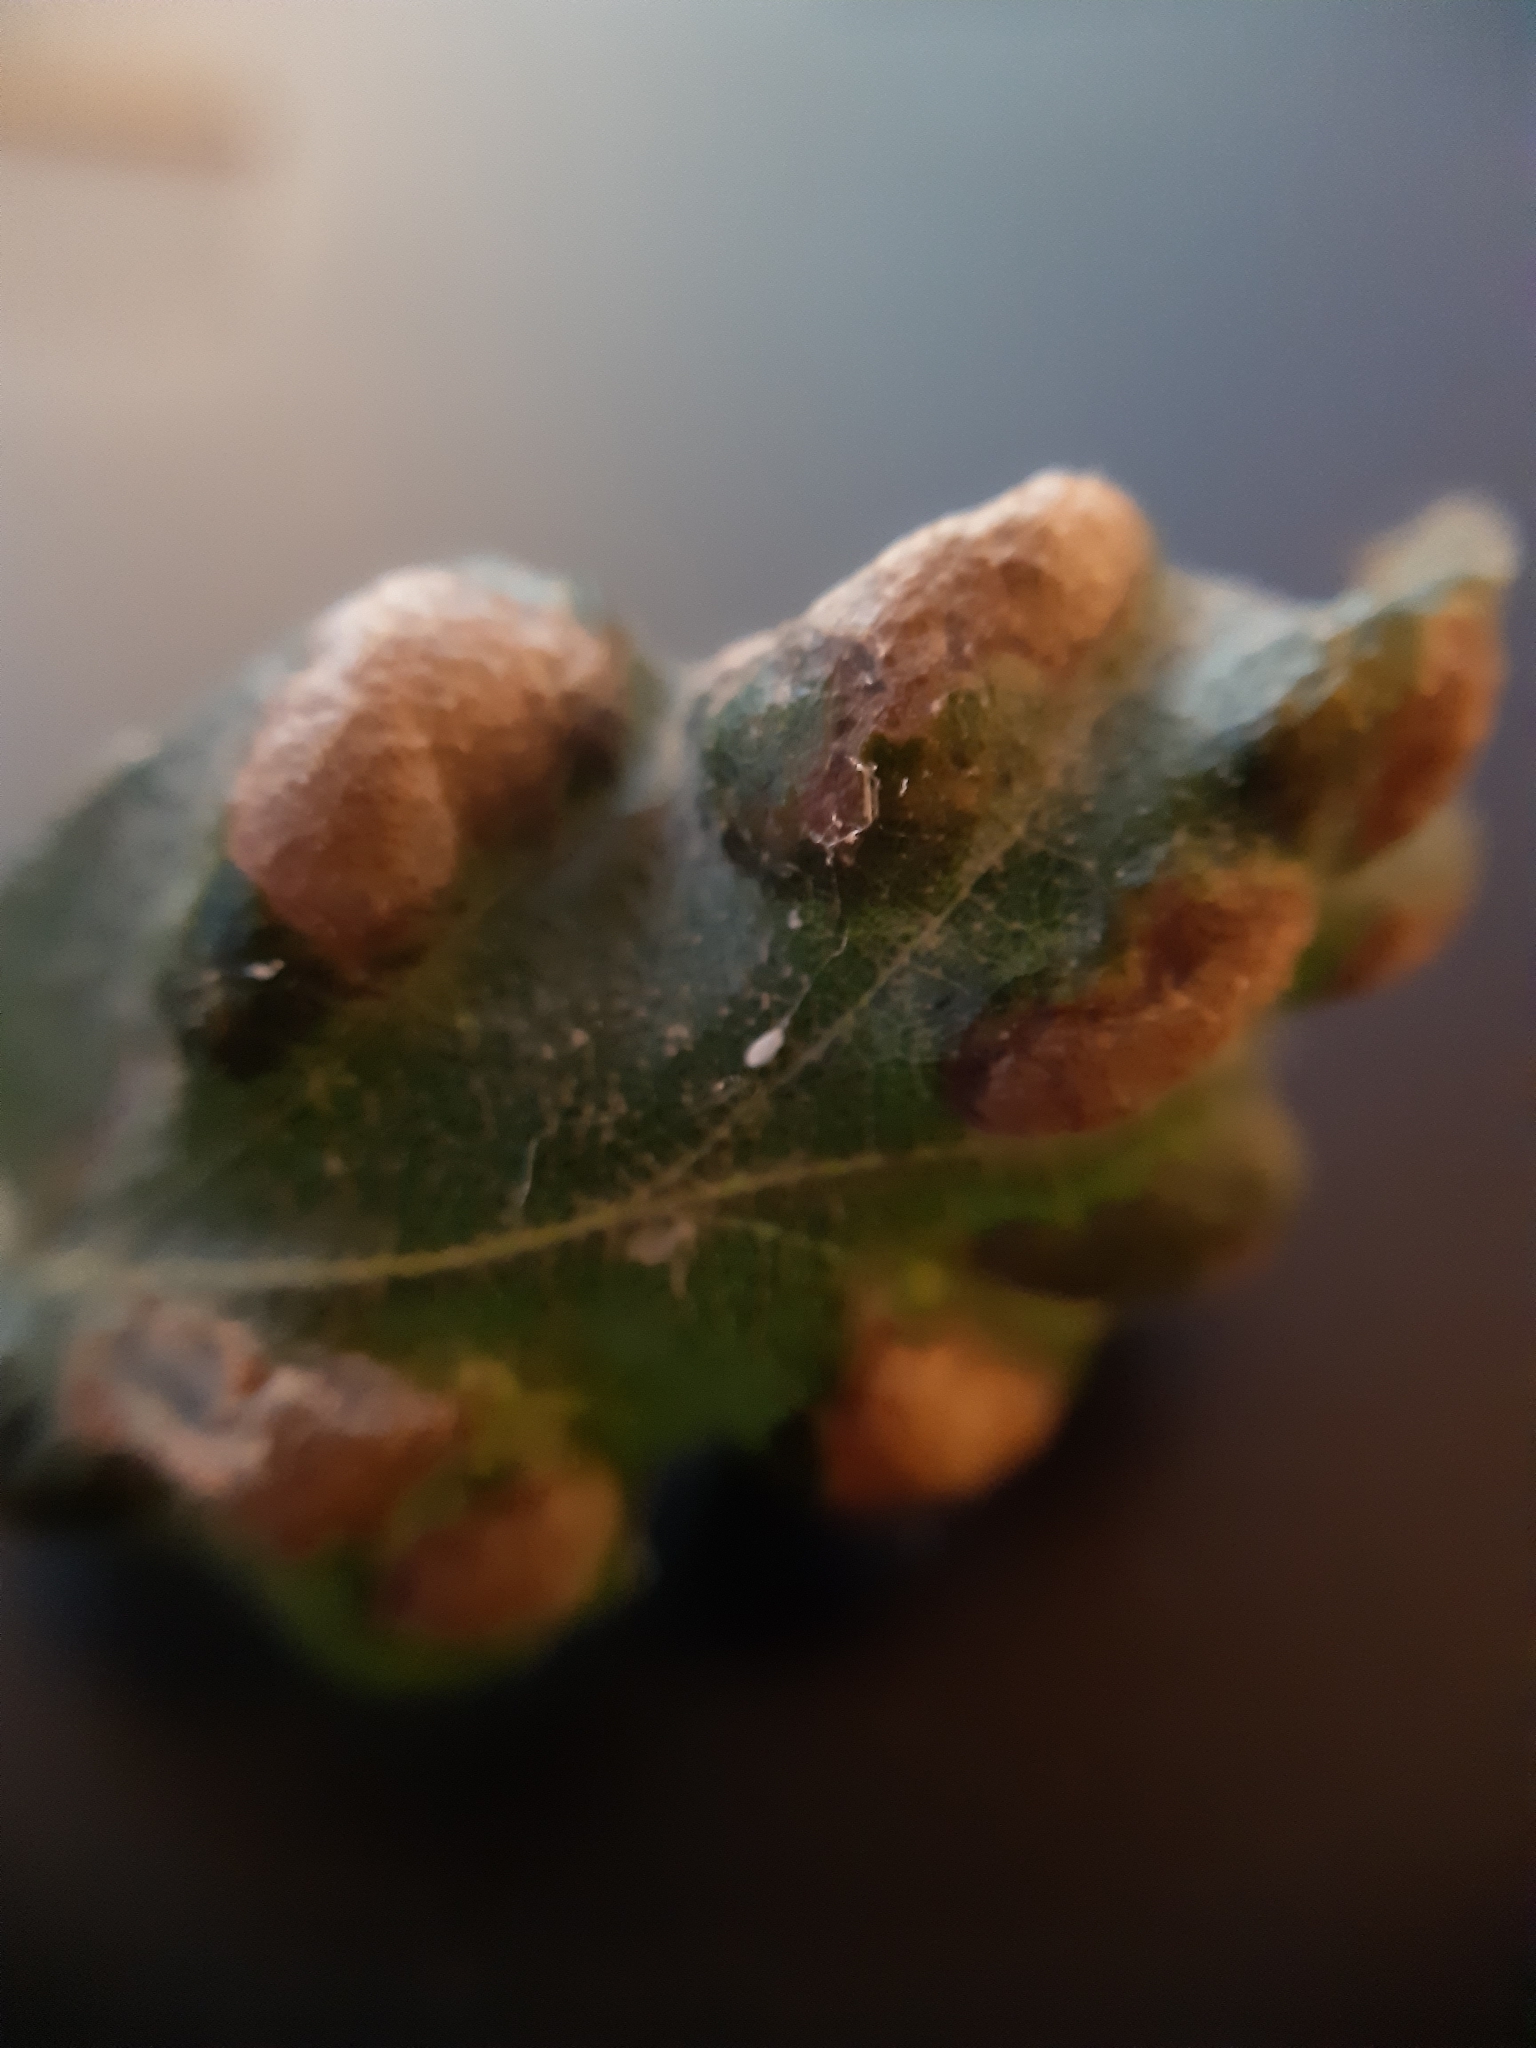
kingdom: Animalia
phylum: Arthropoda
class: Arachnida
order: Trombidiformes
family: Eriophyidae
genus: Aceria
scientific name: Aceria cerrea
